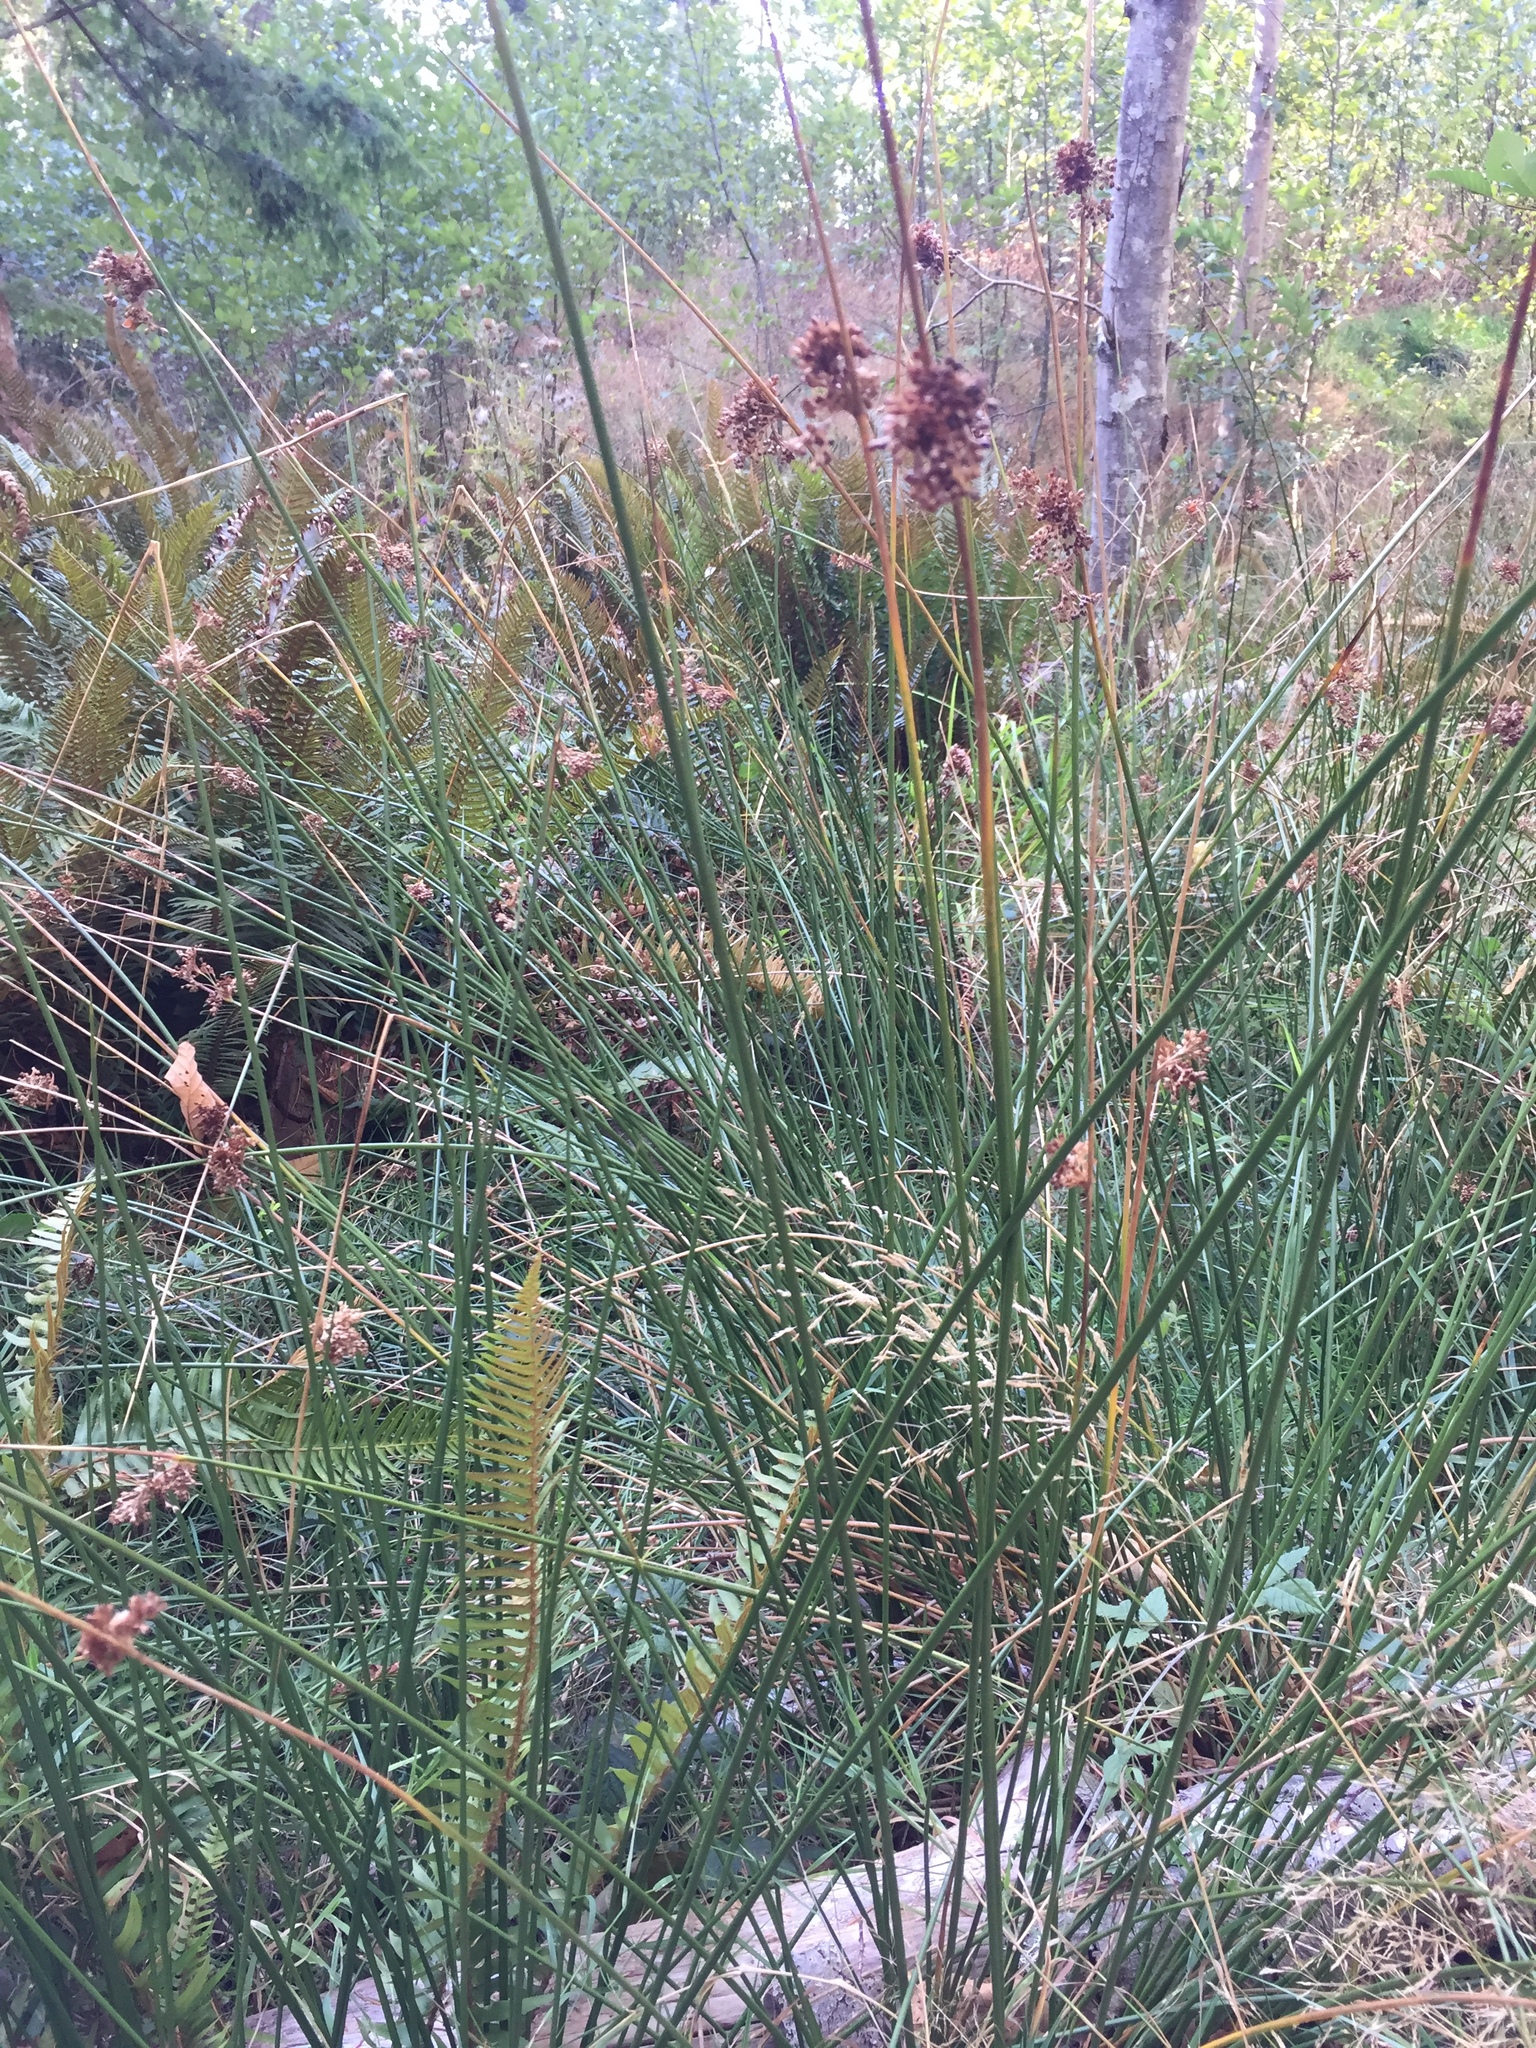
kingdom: Plantae
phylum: Tracheophyta
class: Liliopsida
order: Poales
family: Juncaceae
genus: Juncus
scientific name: Juncus effusus
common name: Soft rush
